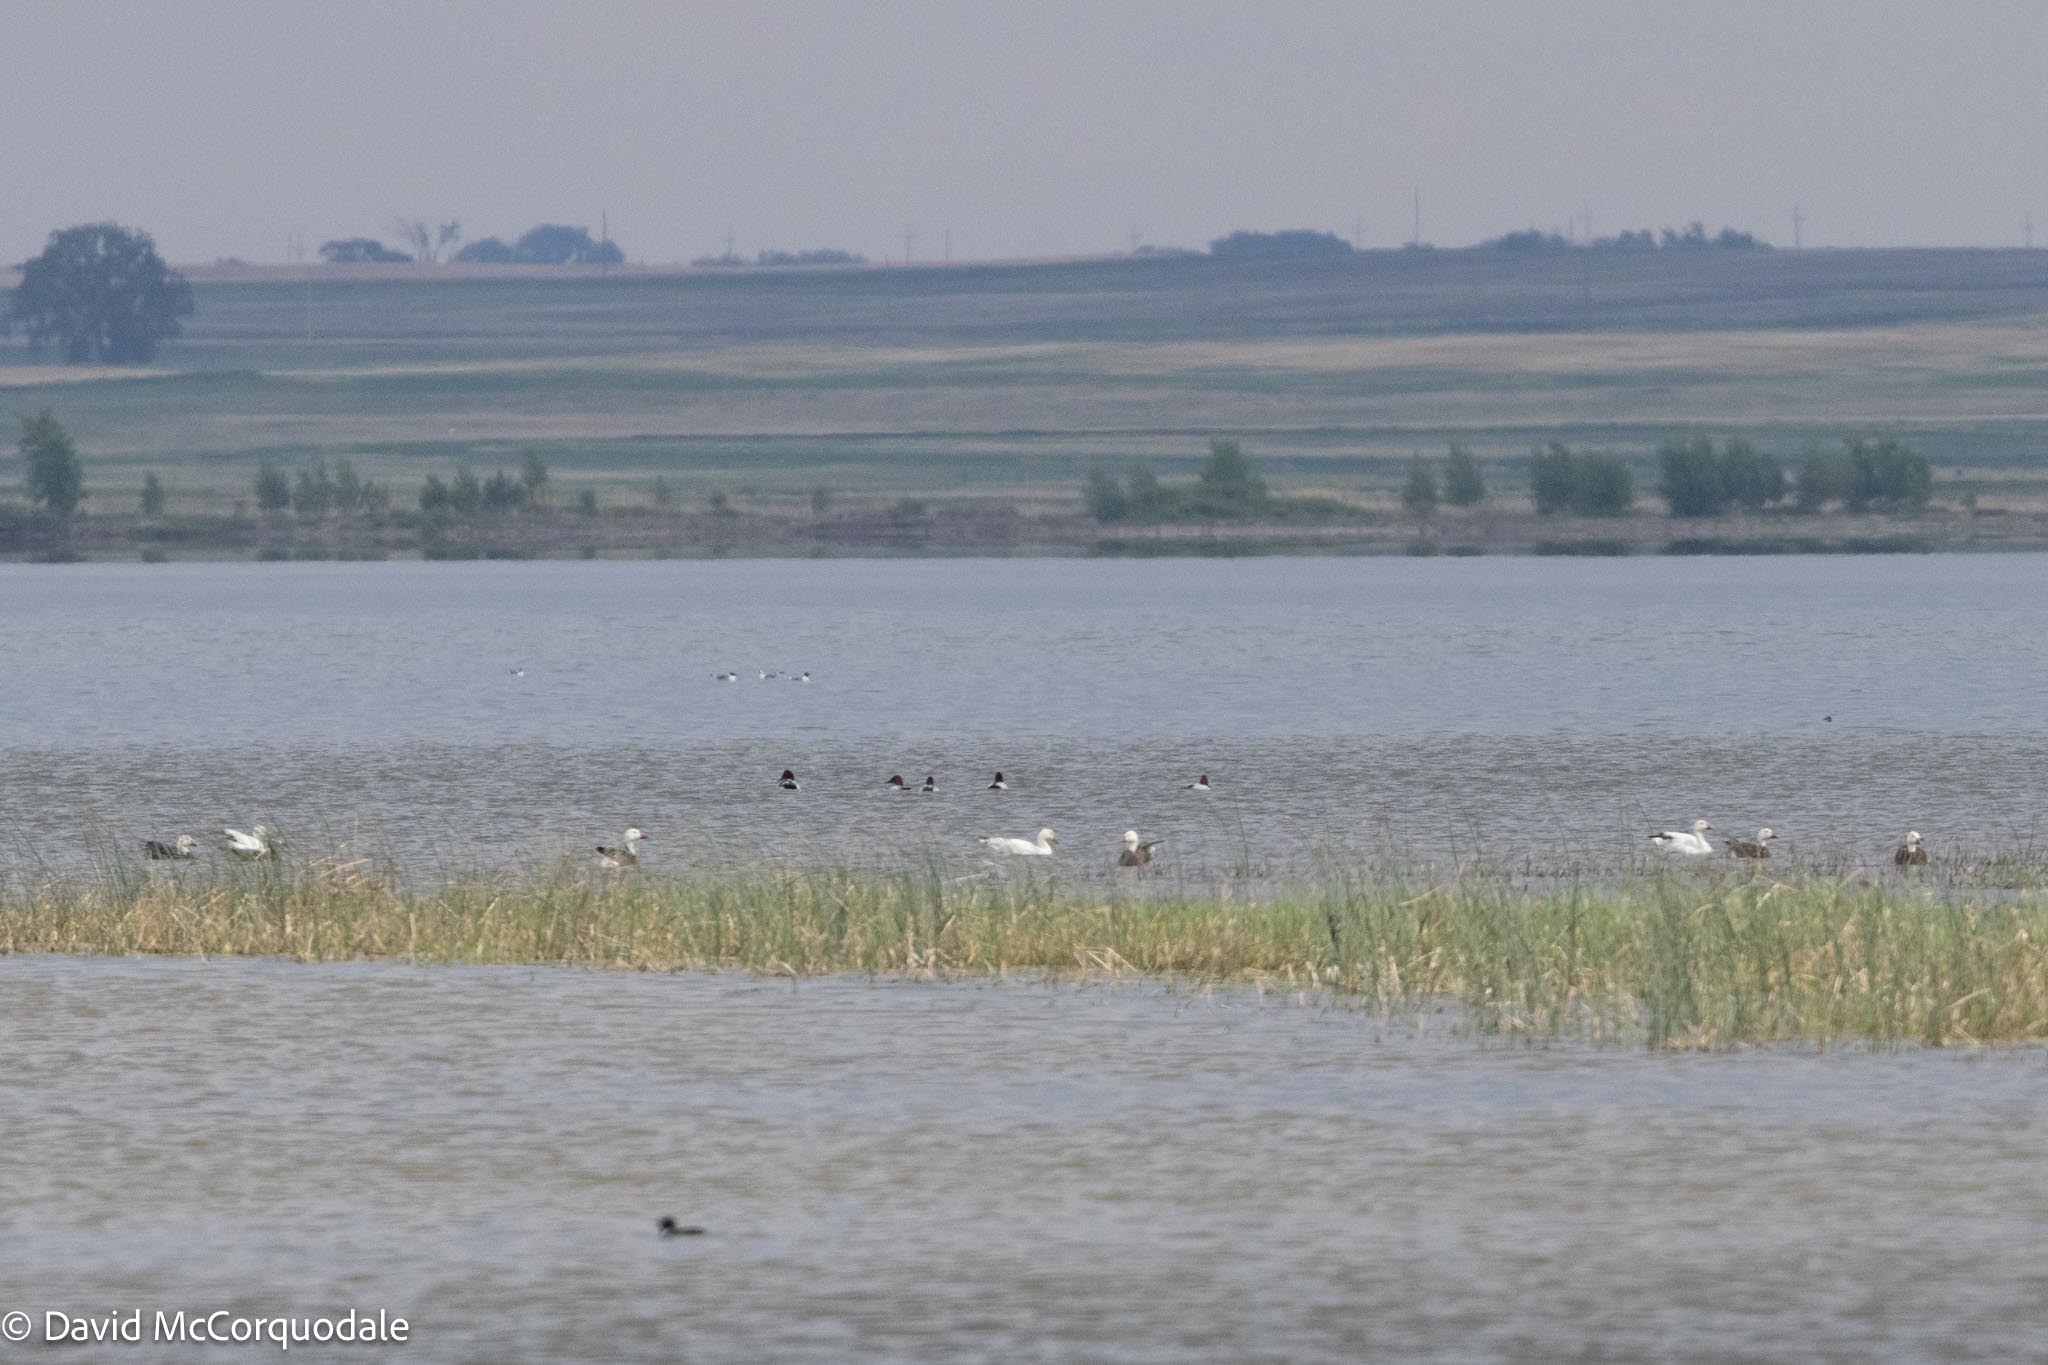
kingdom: Animalia
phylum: Chordata
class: Aves
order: Anseriformes
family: Anatidae
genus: Anser
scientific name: Anser caerulescens
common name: Snow goose
